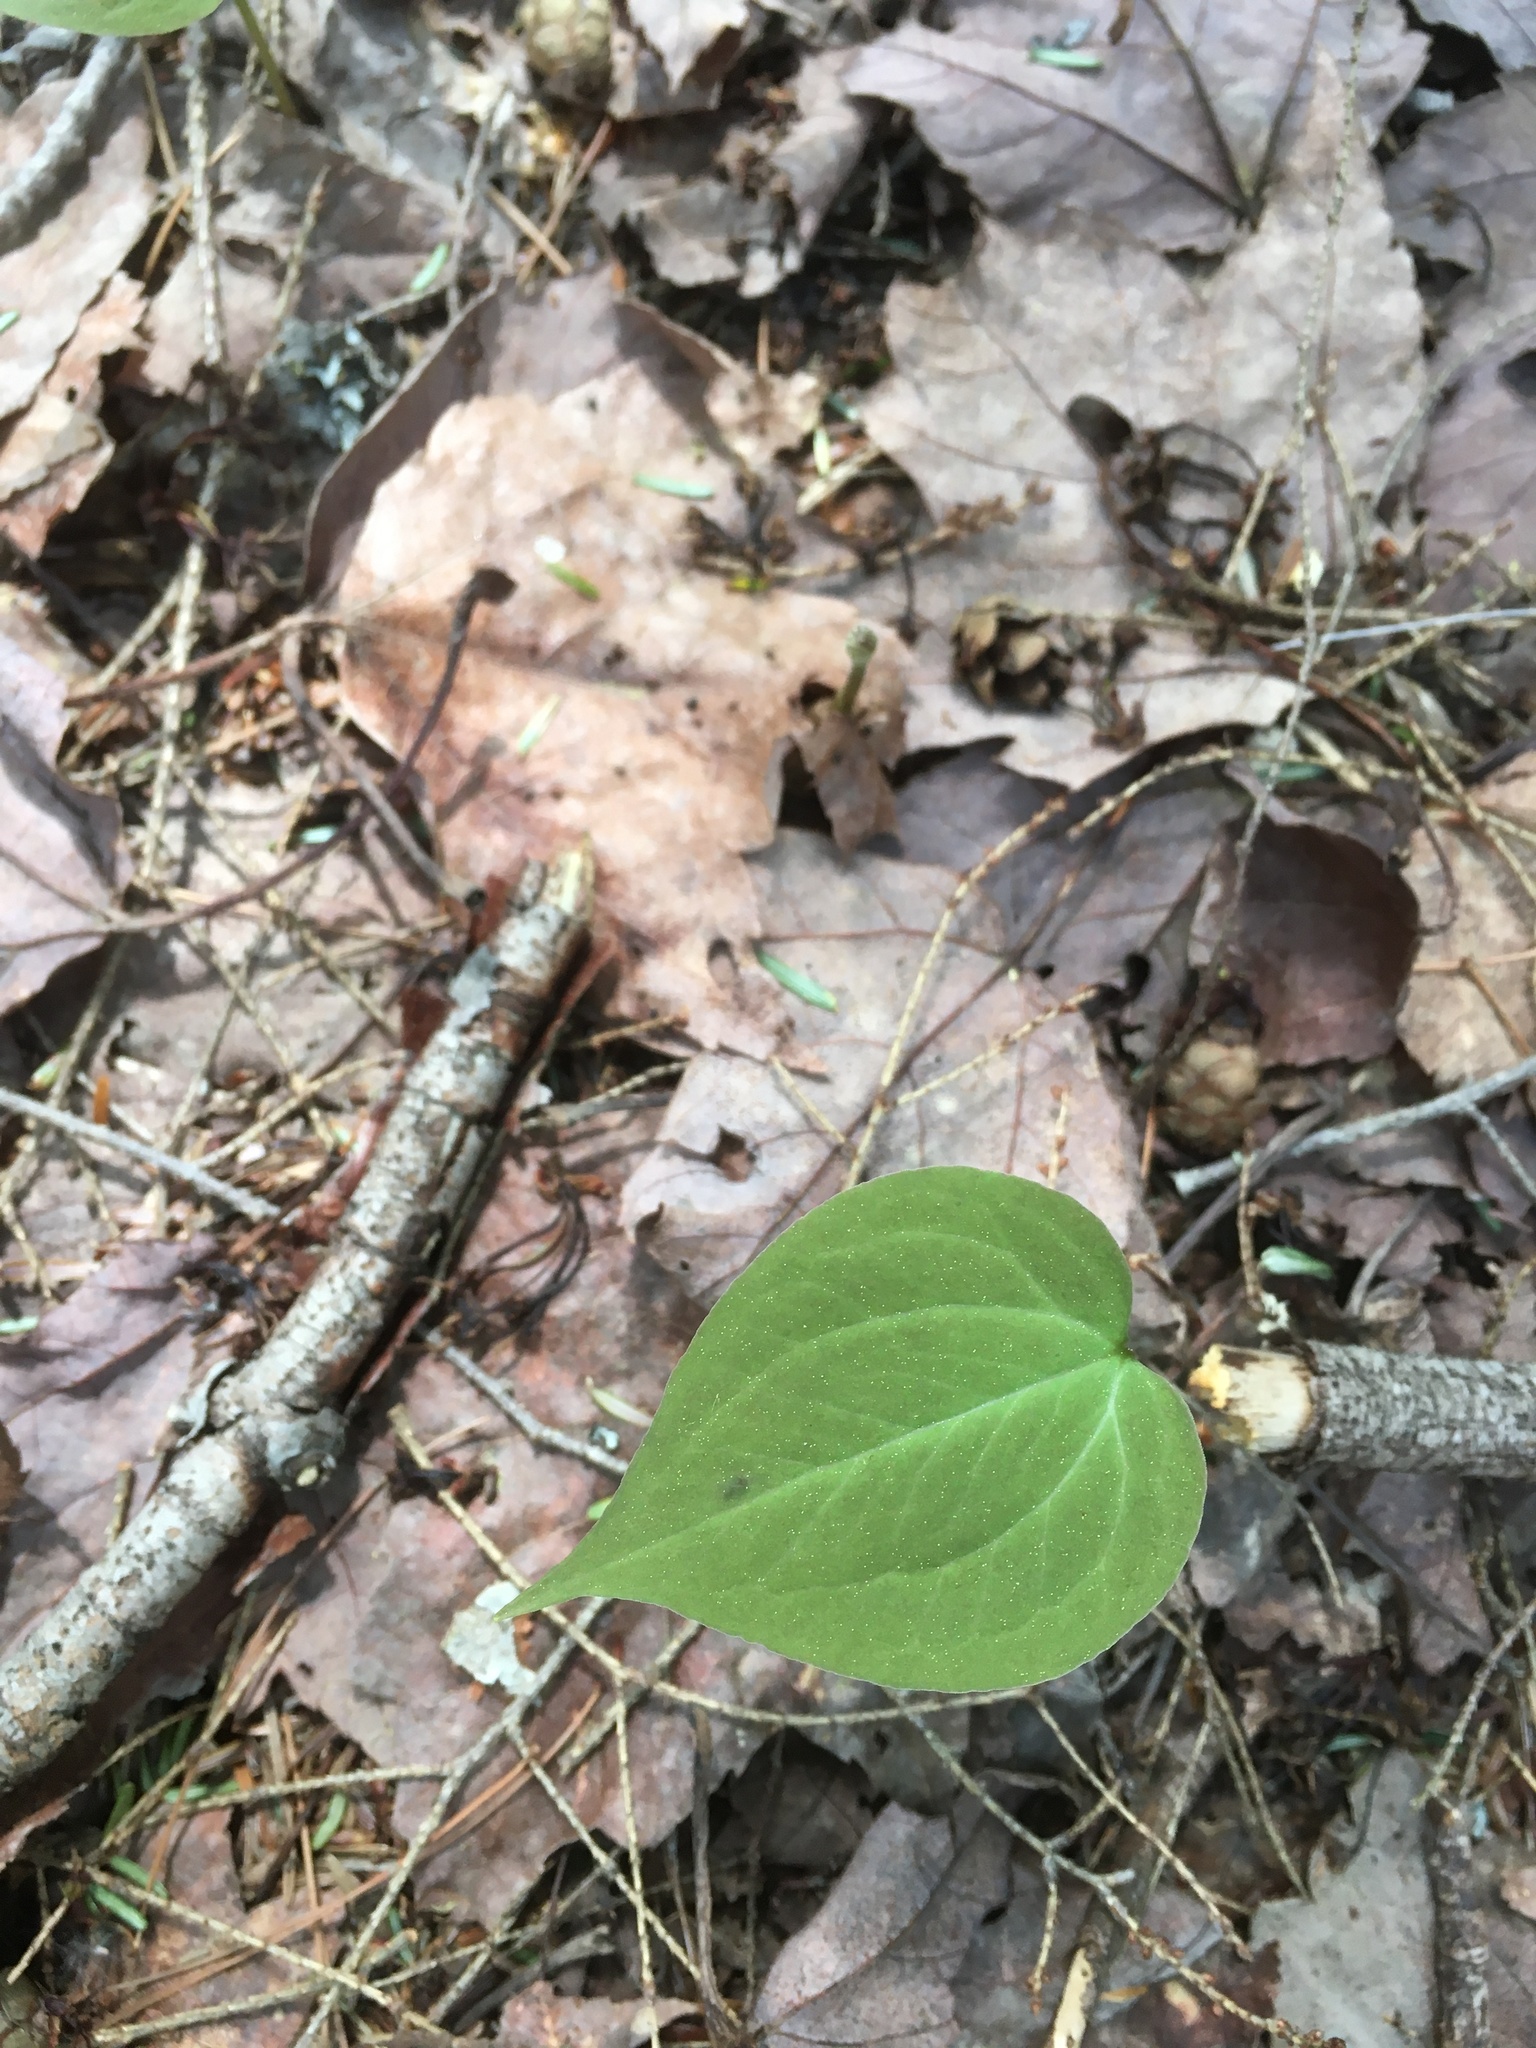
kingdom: Plantae
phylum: Tracheophyta
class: Liliopsida
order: Liliales
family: Melanthiaceae
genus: Trillium
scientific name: Trillium undulatum
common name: Paint trillium
